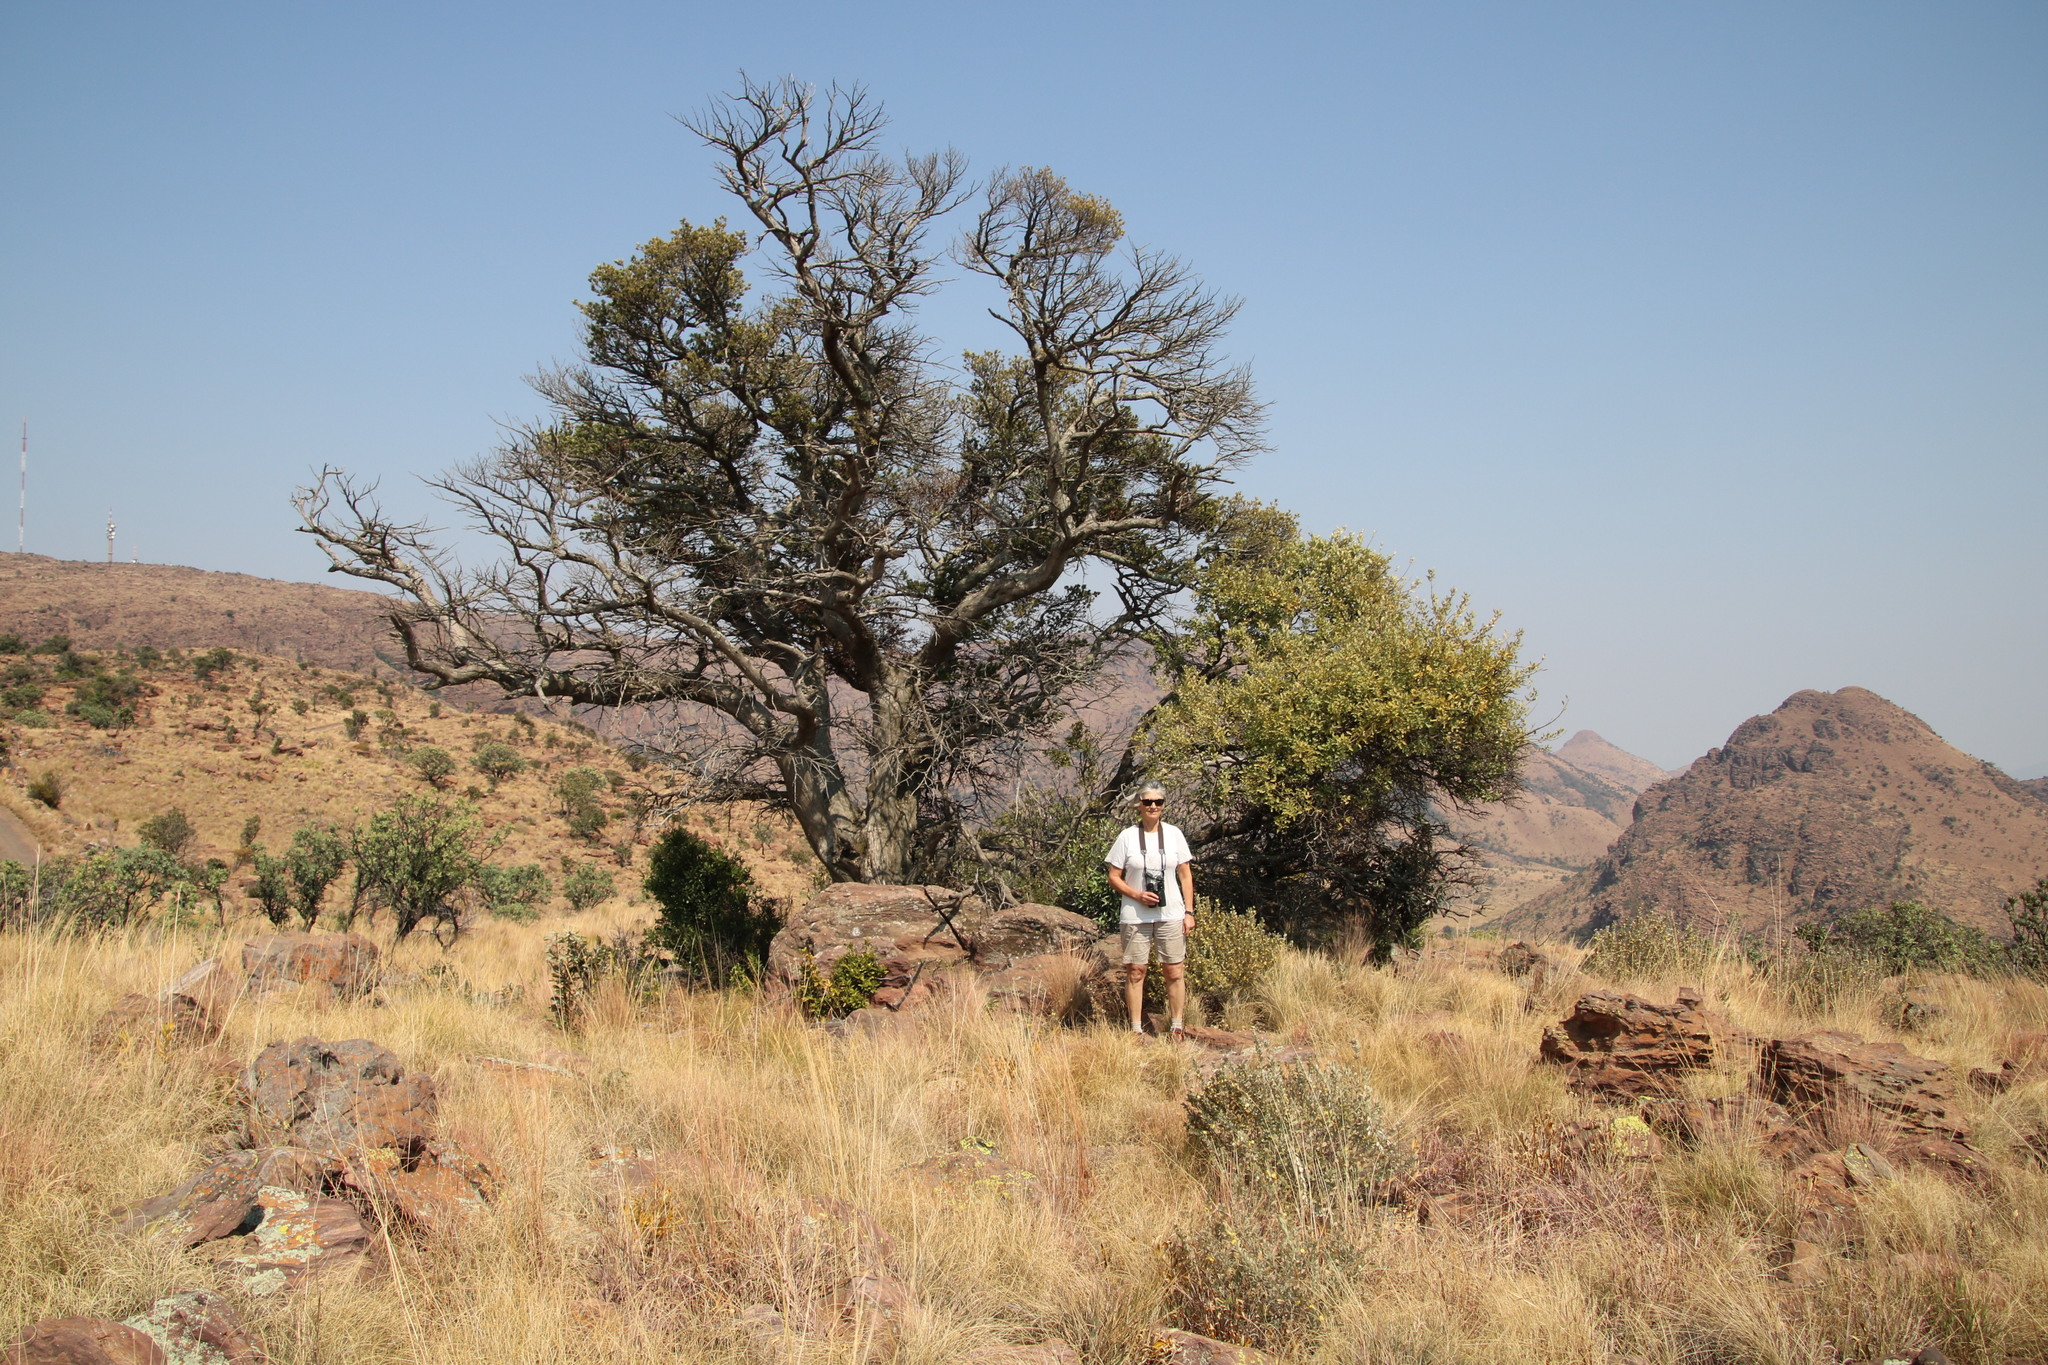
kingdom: Plantae
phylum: Tracheophyta
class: Pinopsida
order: Pinales
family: Podocarpaceae
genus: Podocarpus
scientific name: Podocarpus latifolius
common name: True yellowwood
